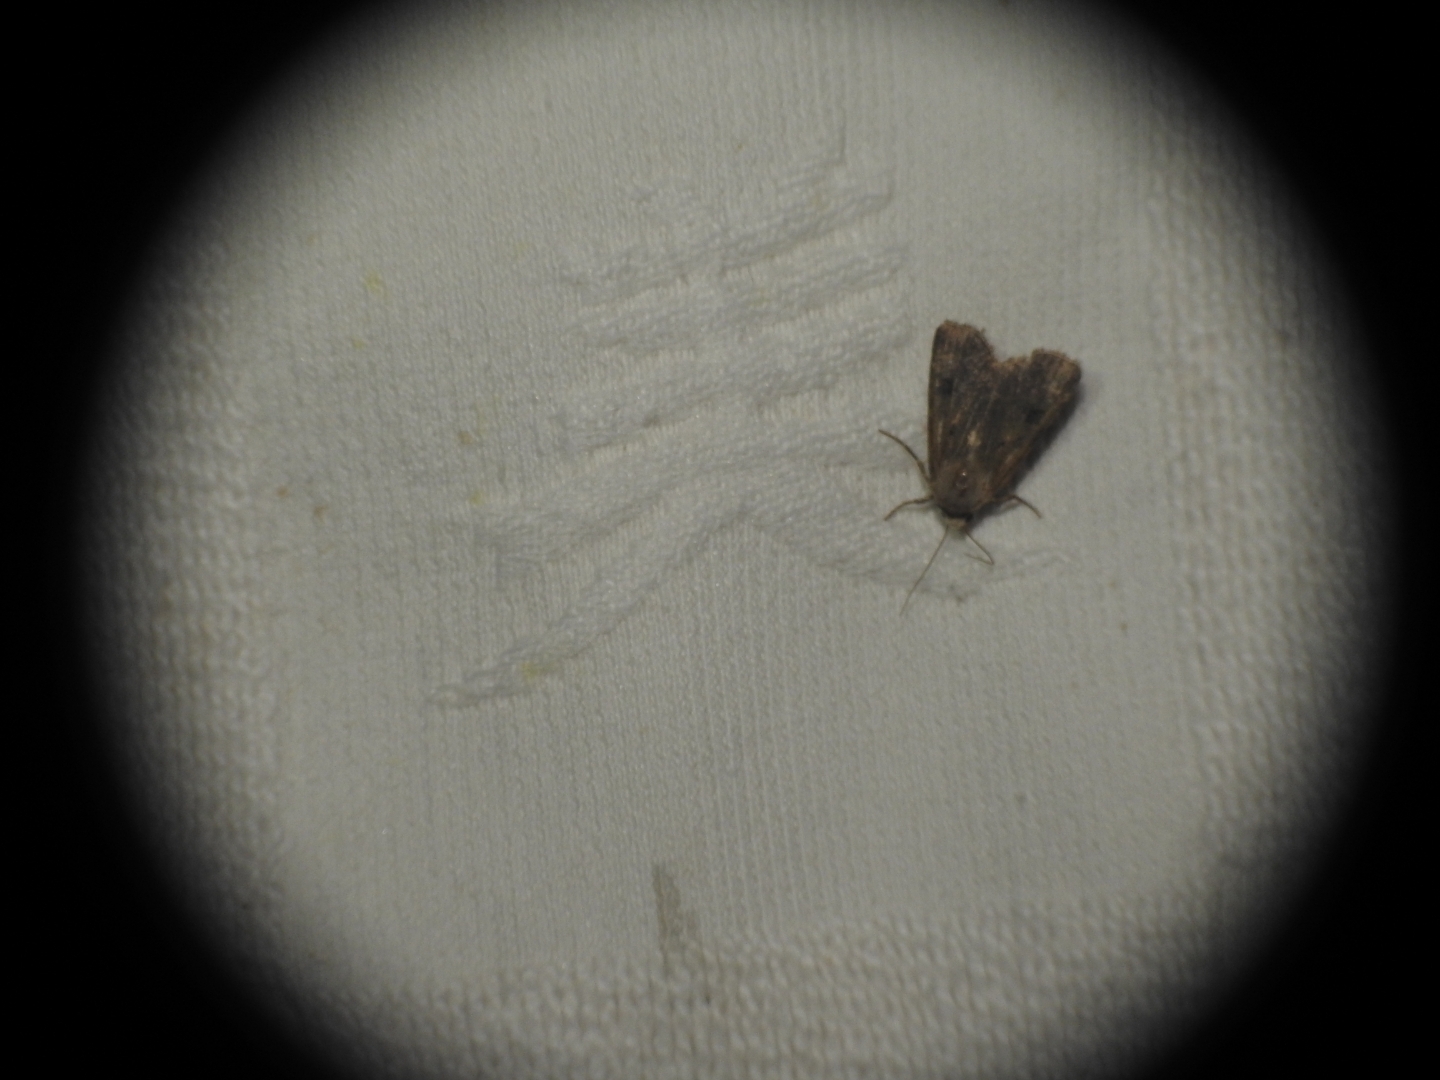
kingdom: Animalia
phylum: Arthropoda
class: Insecta
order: Lepidoptera
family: Noctuidae
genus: Agrotis
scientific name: Agrotis exclamationis
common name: Heart and dart
